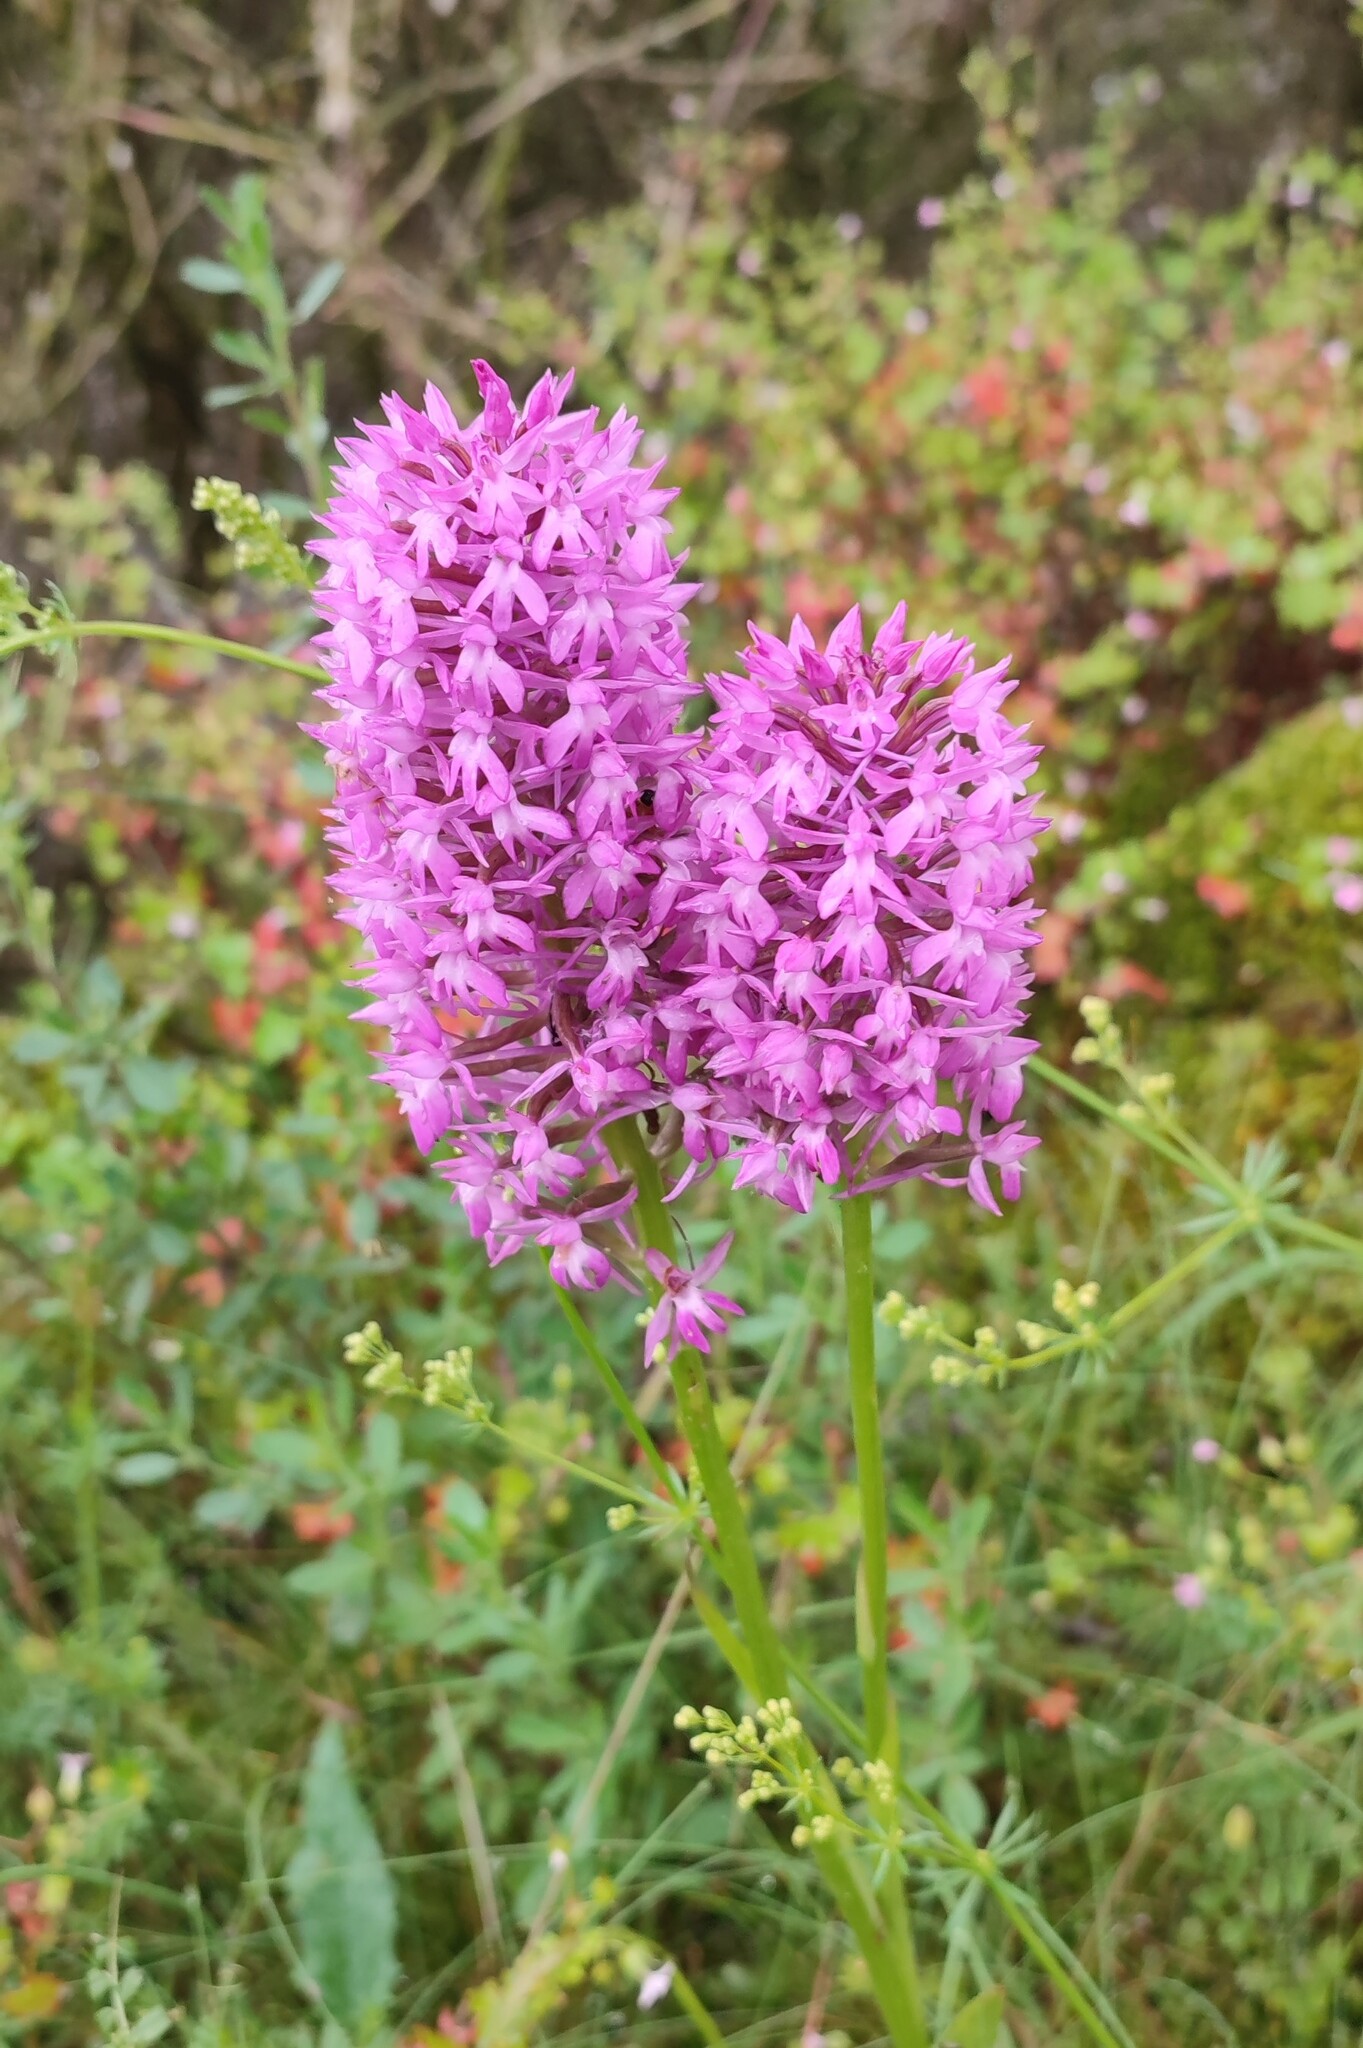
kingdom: Plantae
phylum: Tracheophyta
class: Liliopsida
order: Asparagales
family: Orchidaceae
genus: Anacamptis
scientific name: Anacamptis pyramidalis
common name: Pyramidal orchid
